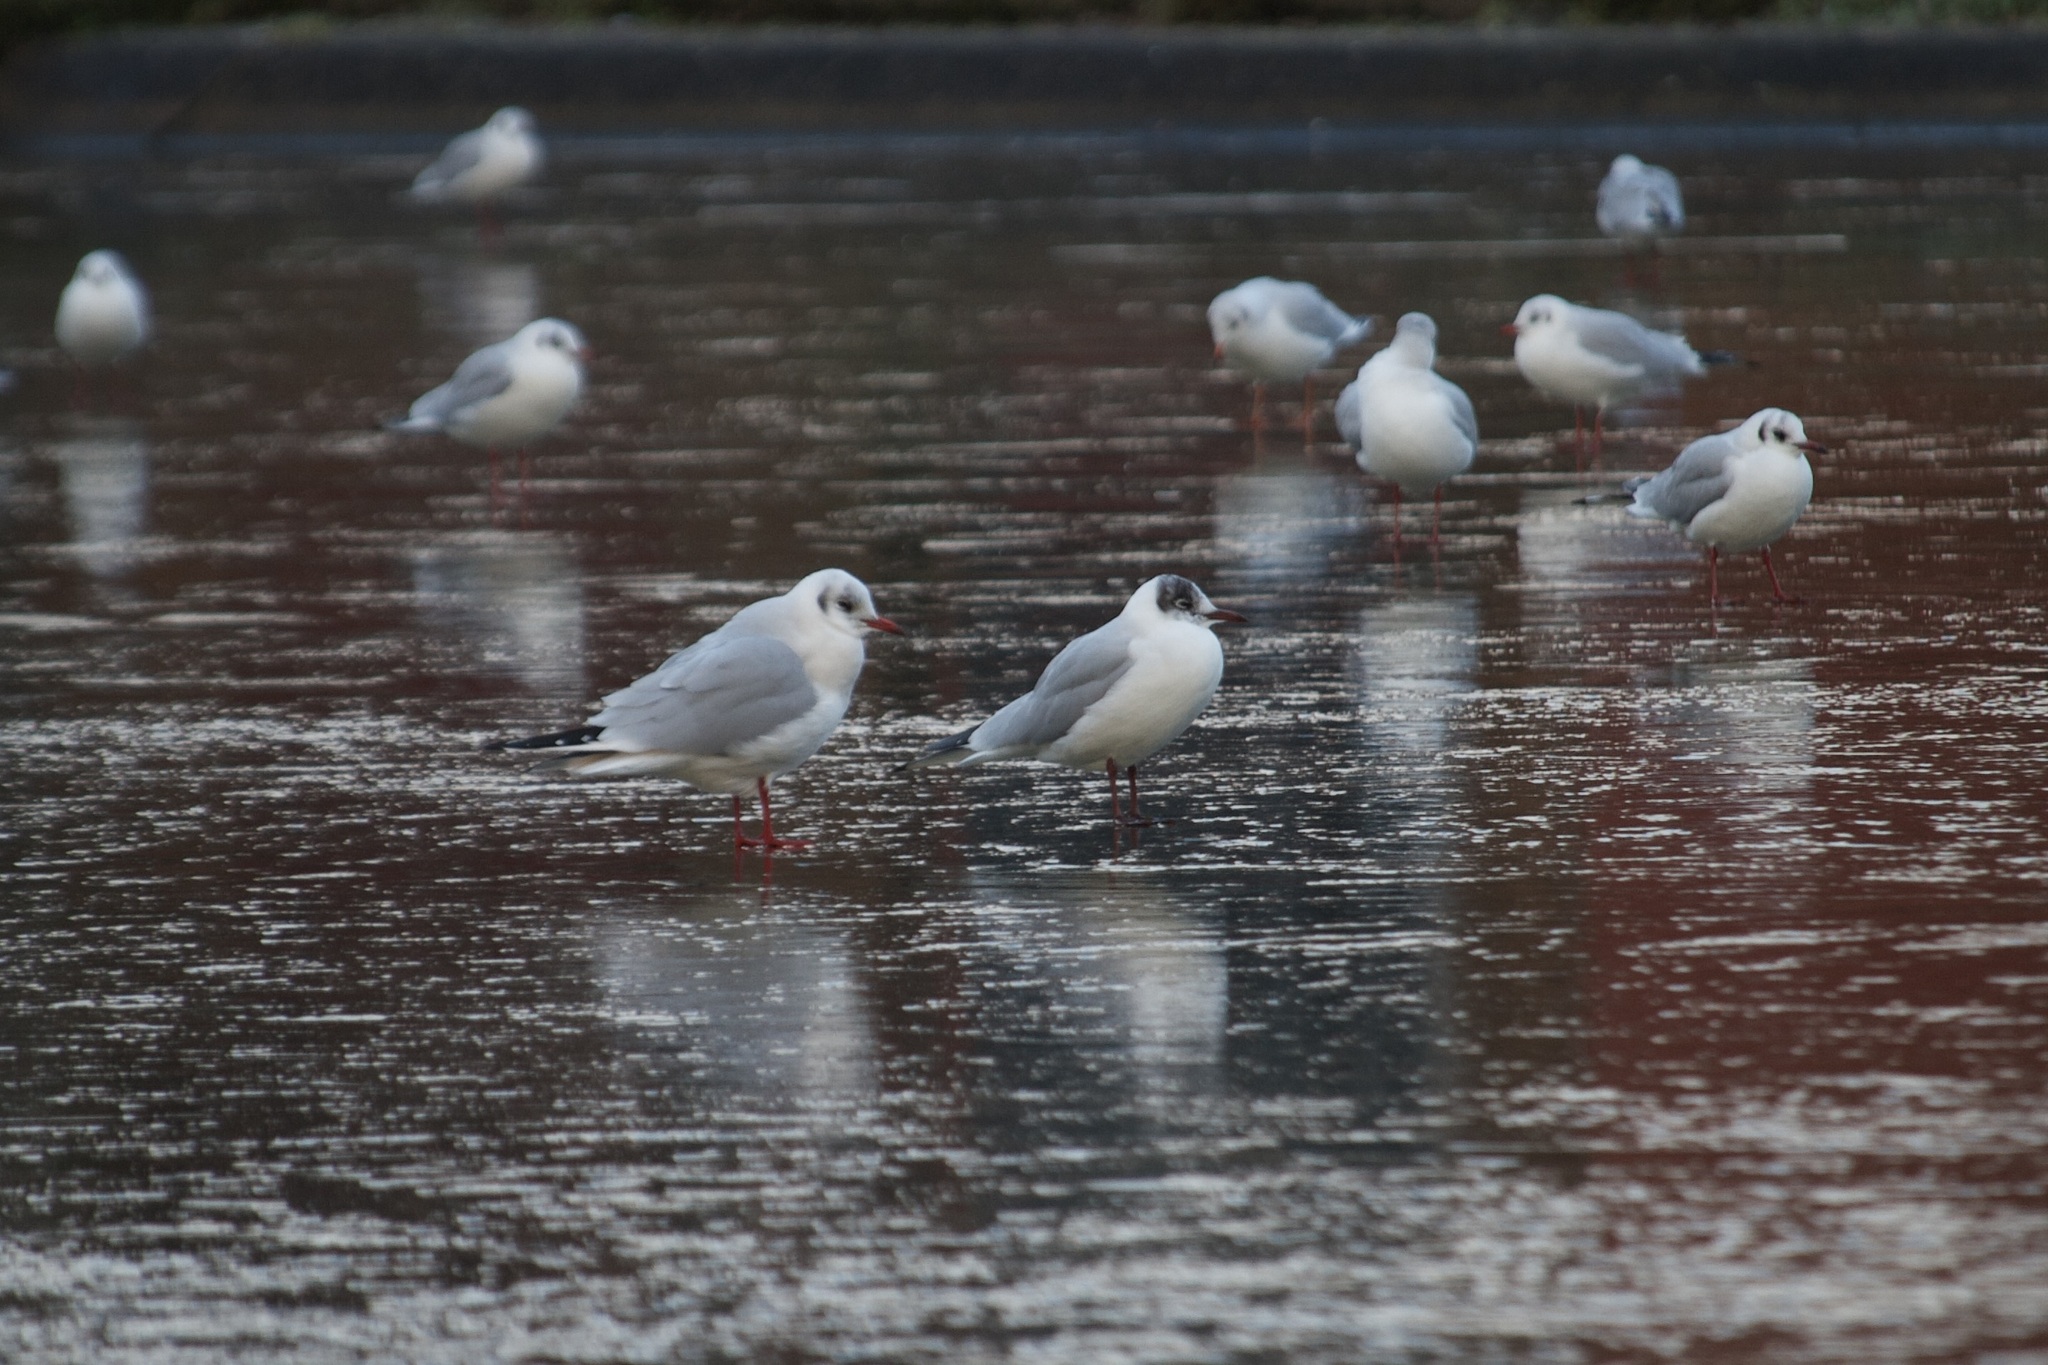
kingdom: Animalia
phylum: Chordata
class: Aves
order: Charadriiformes
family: Laridae
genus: Chroicocephalus
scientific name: Chroicocephalus ridibundus
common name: Black-headed gull
